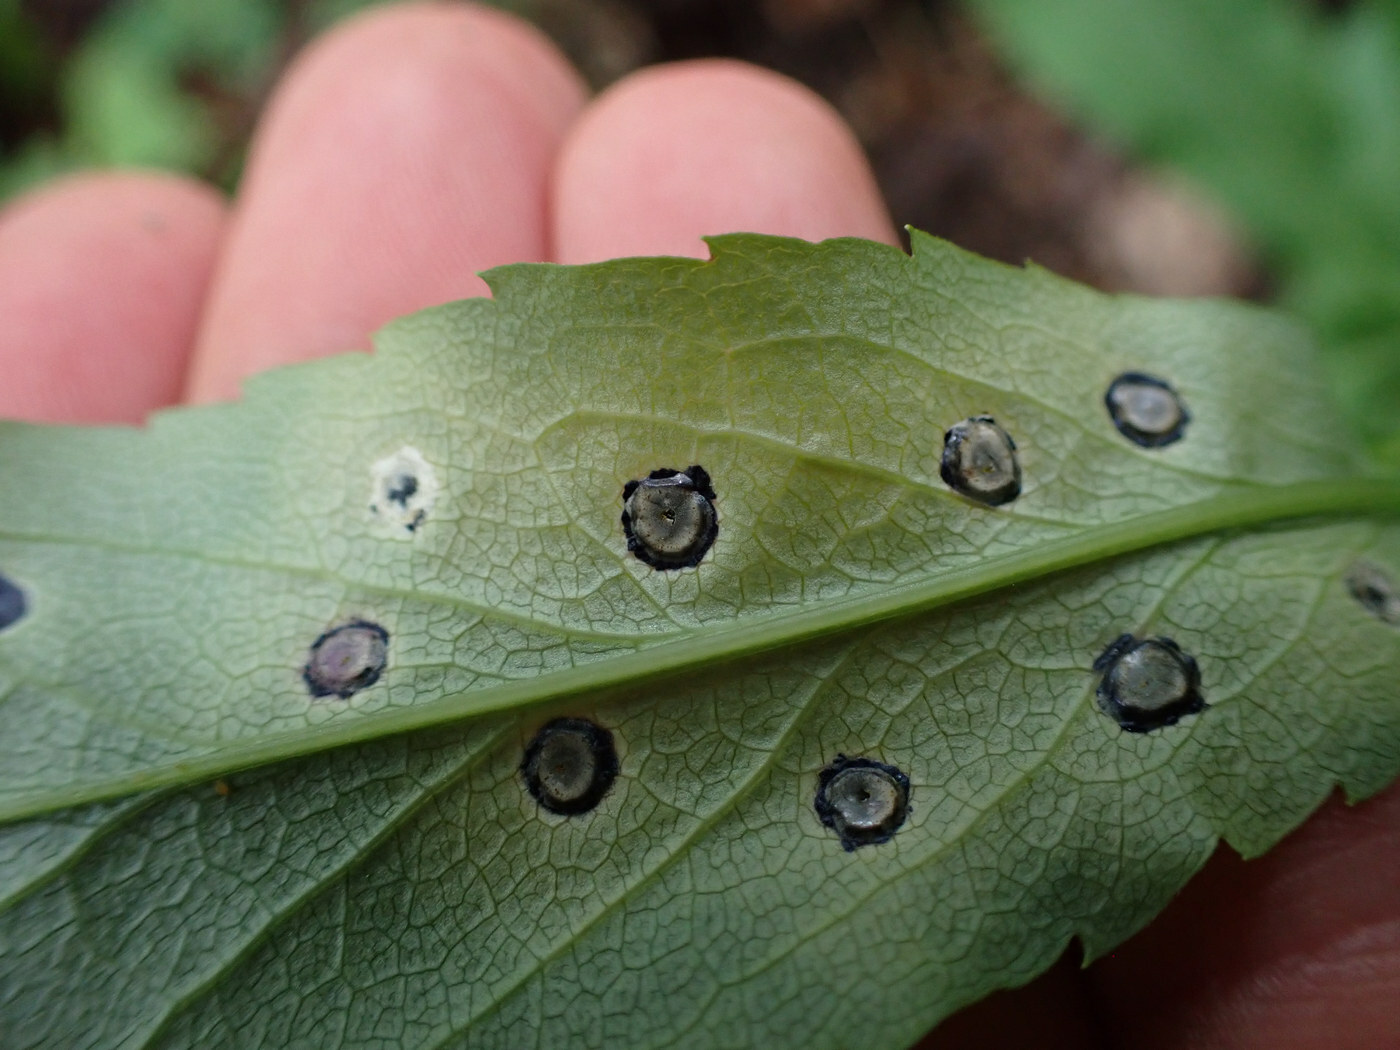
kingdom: Animalia
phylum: Arthropoda
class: Insecta
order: Diptera
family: Cecidomyiidae
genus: Asteromyia
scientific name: Asteromyia carbonifera
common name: Carbonifera goldenrod gall midge
